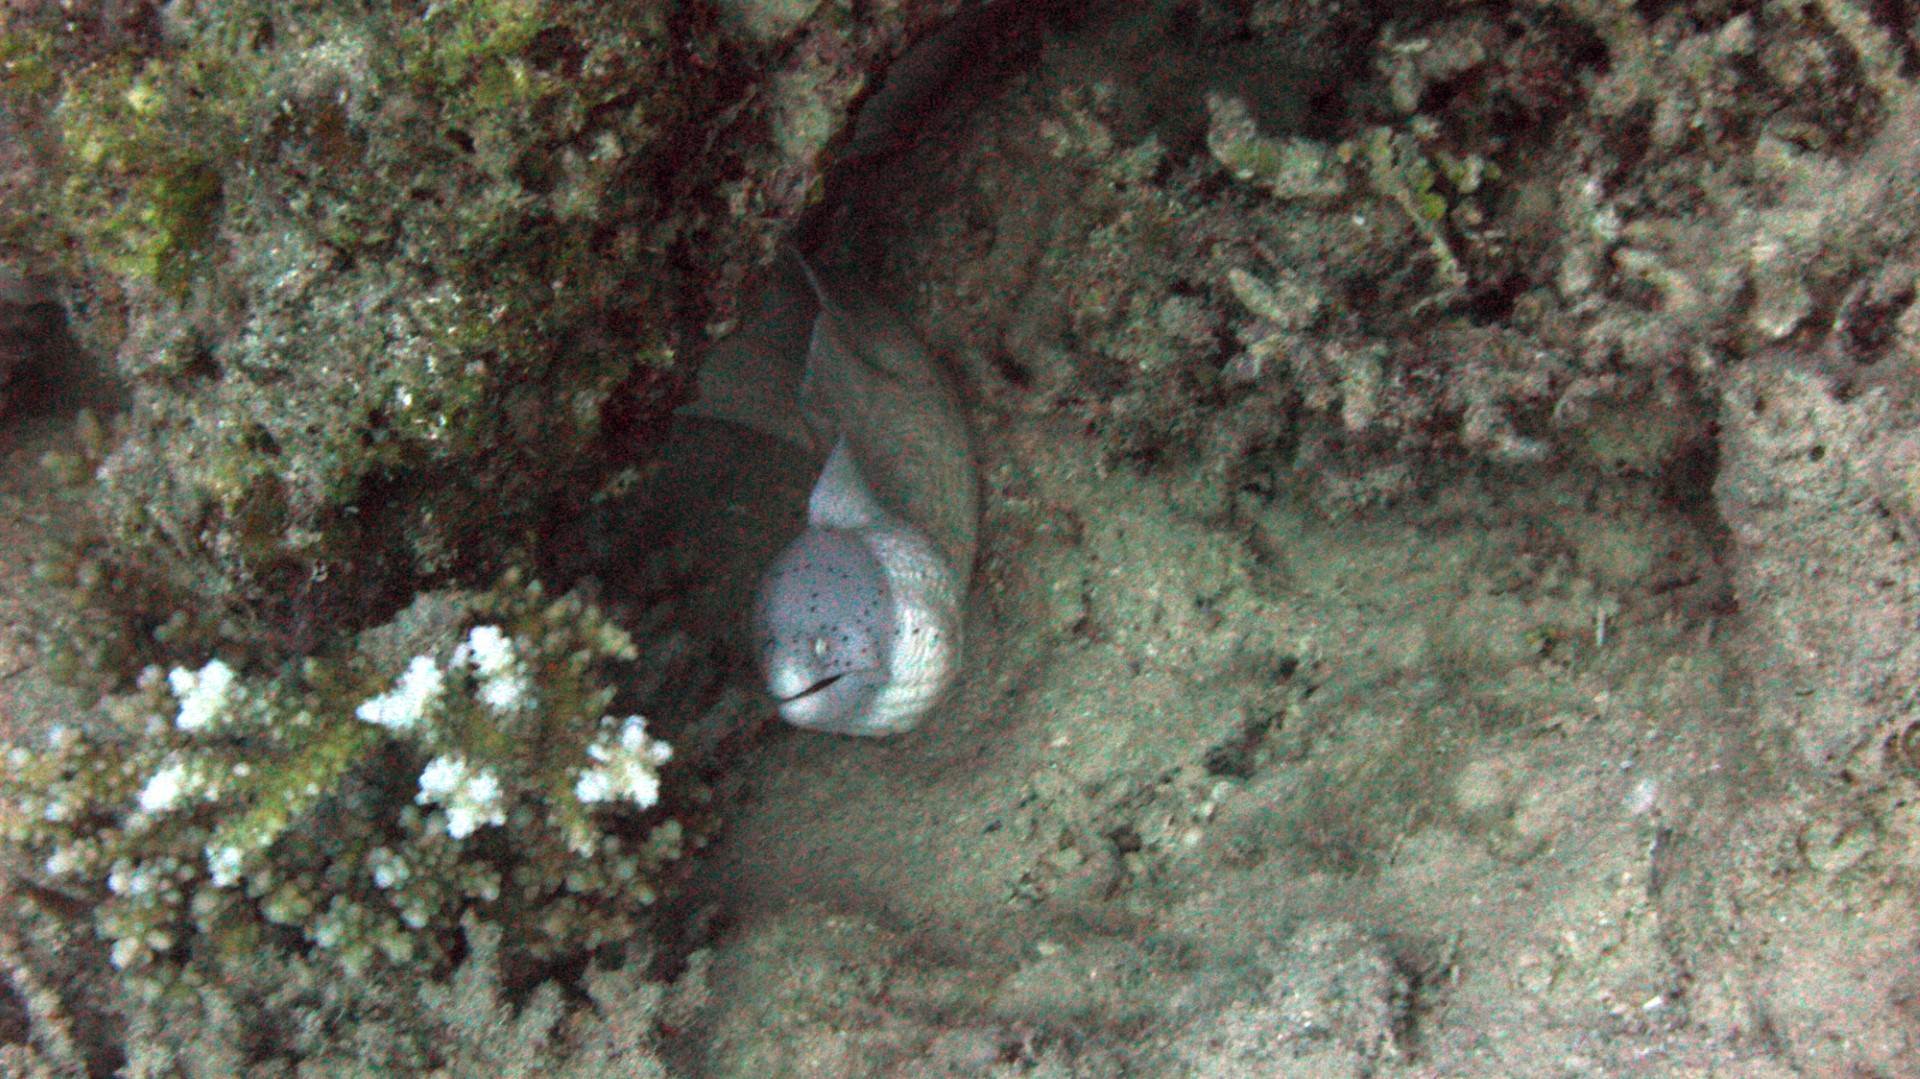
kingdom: Animalia
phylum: Chordata
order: Anguilliformes
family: Muraenidae
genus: Gymnothorax
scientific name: Gymnothorax griseus
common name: Geometric moray
